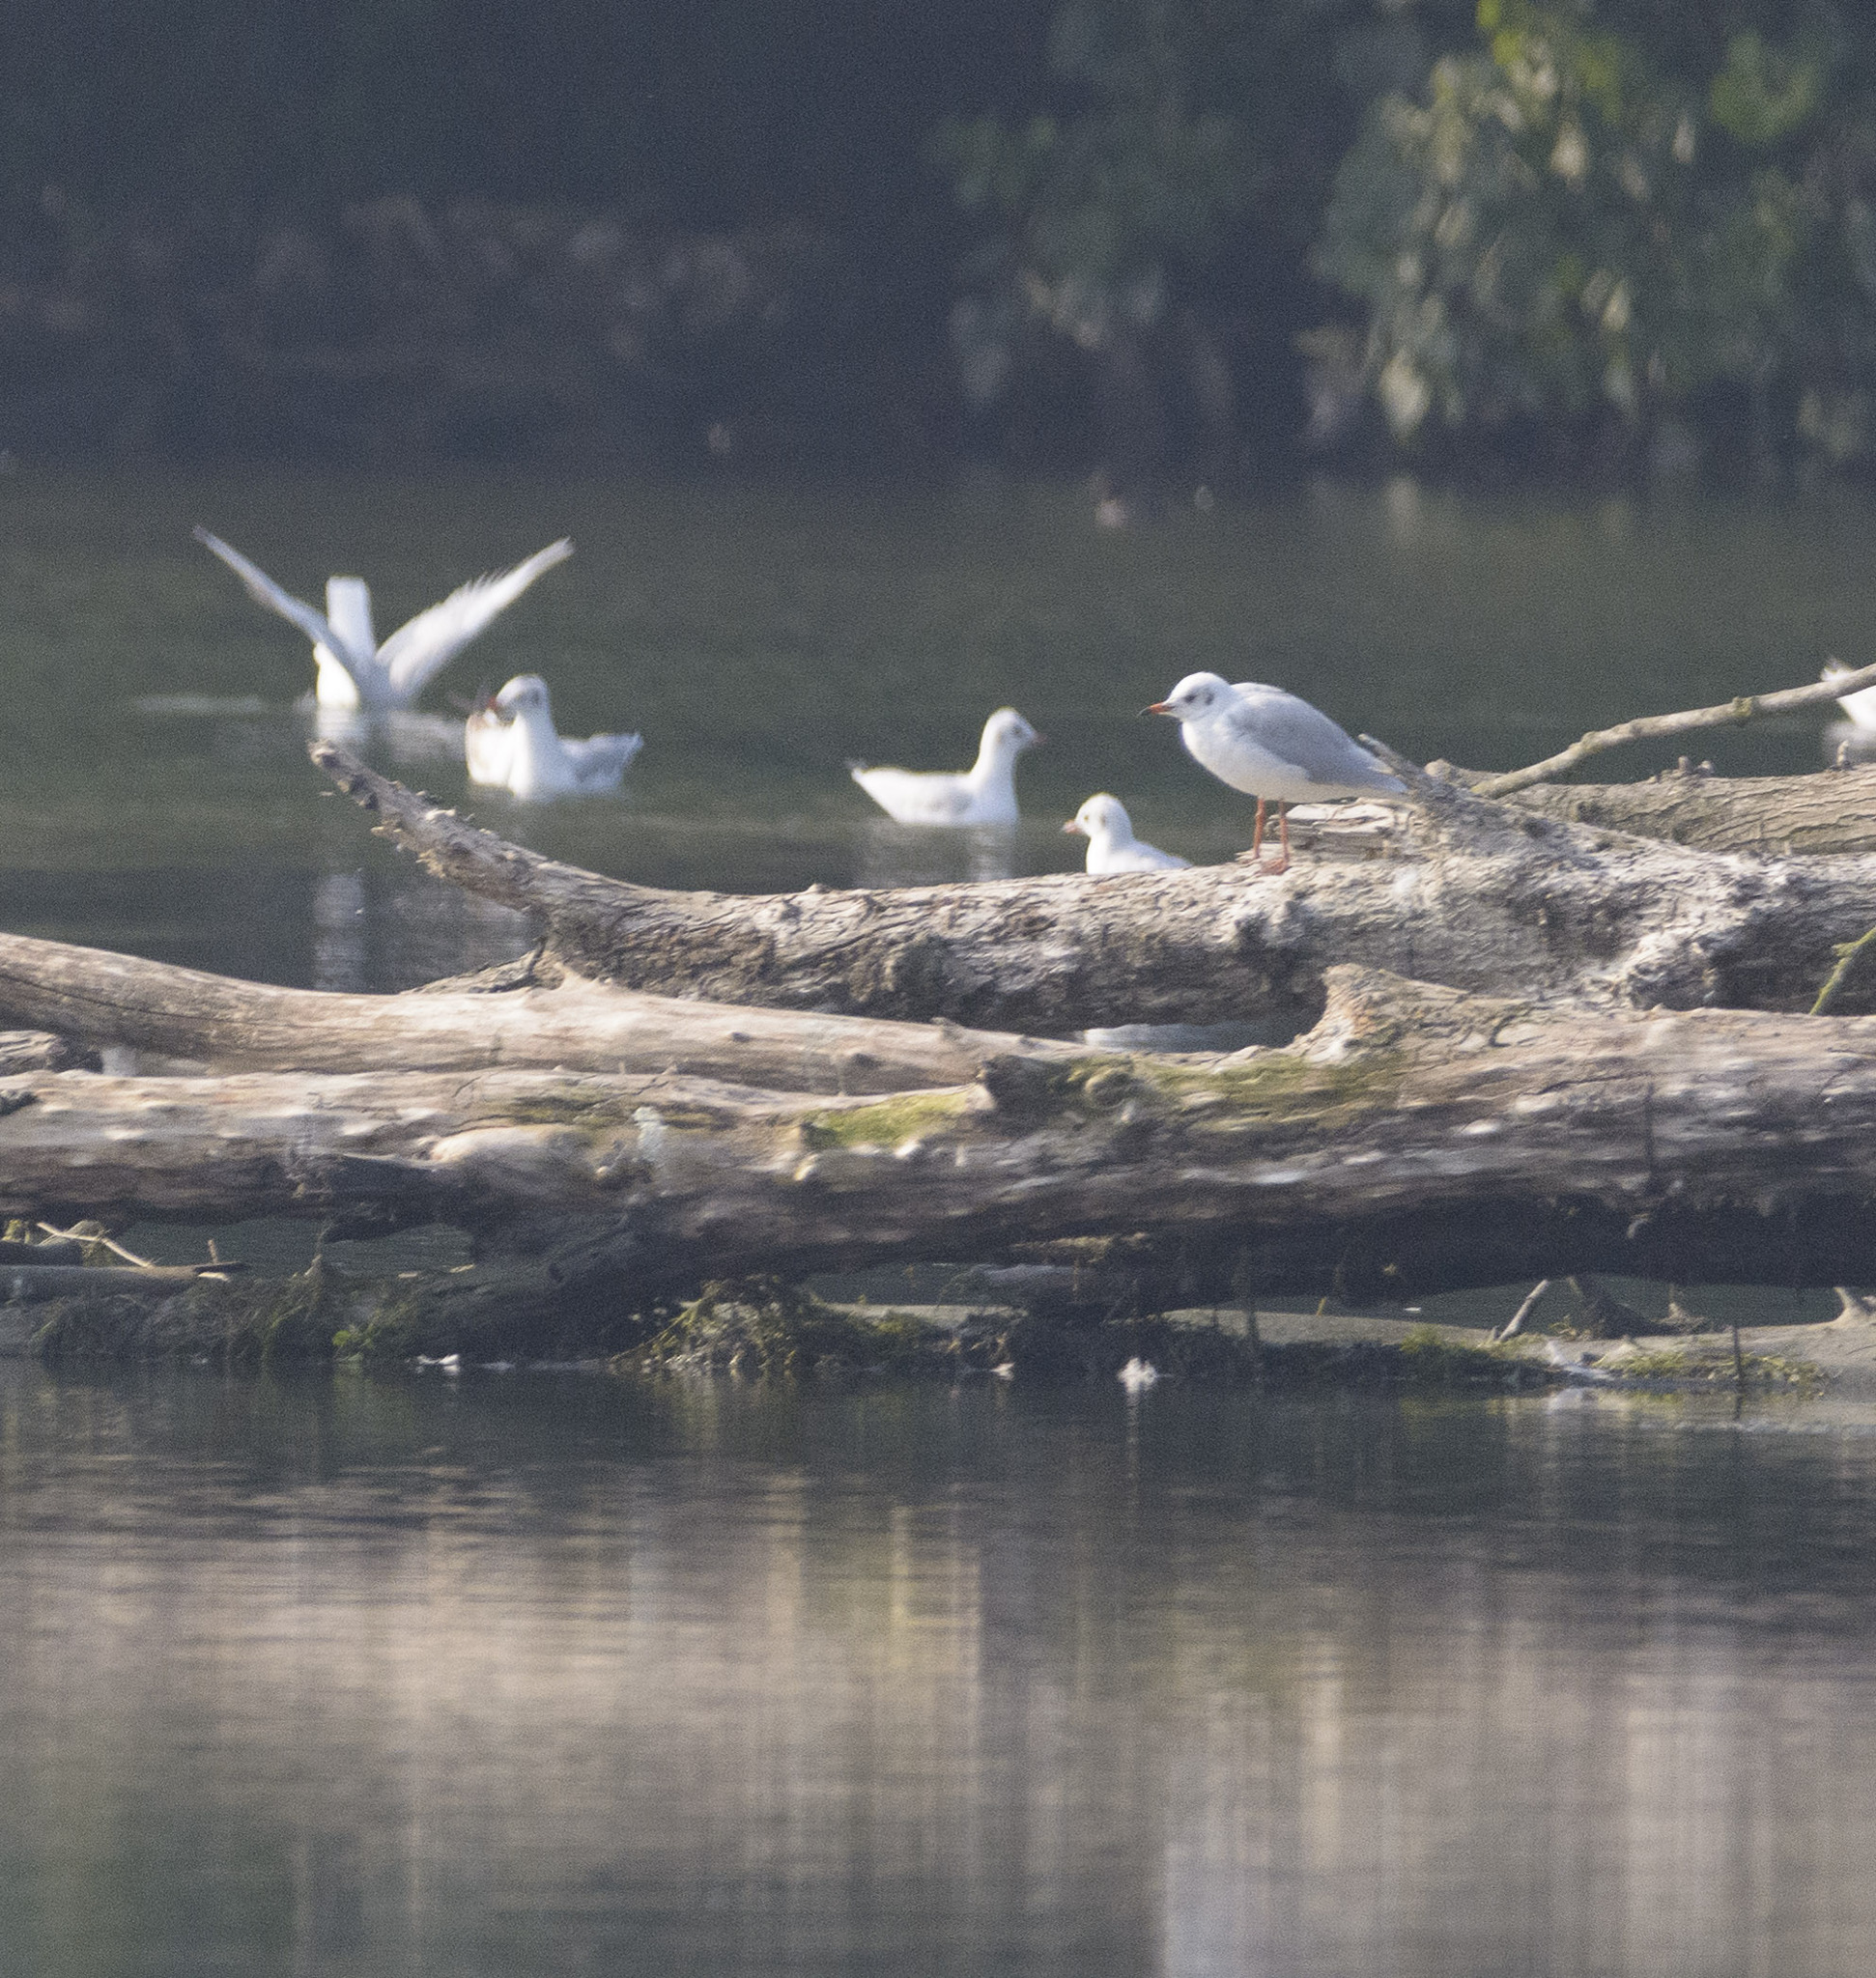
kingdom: Animalia
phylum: Chordata
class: Aves
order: Charadriiformes
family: Laridae
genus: Chroicocephalus
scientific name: Chroicocephalus ridibundus
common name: Black-headed gull
